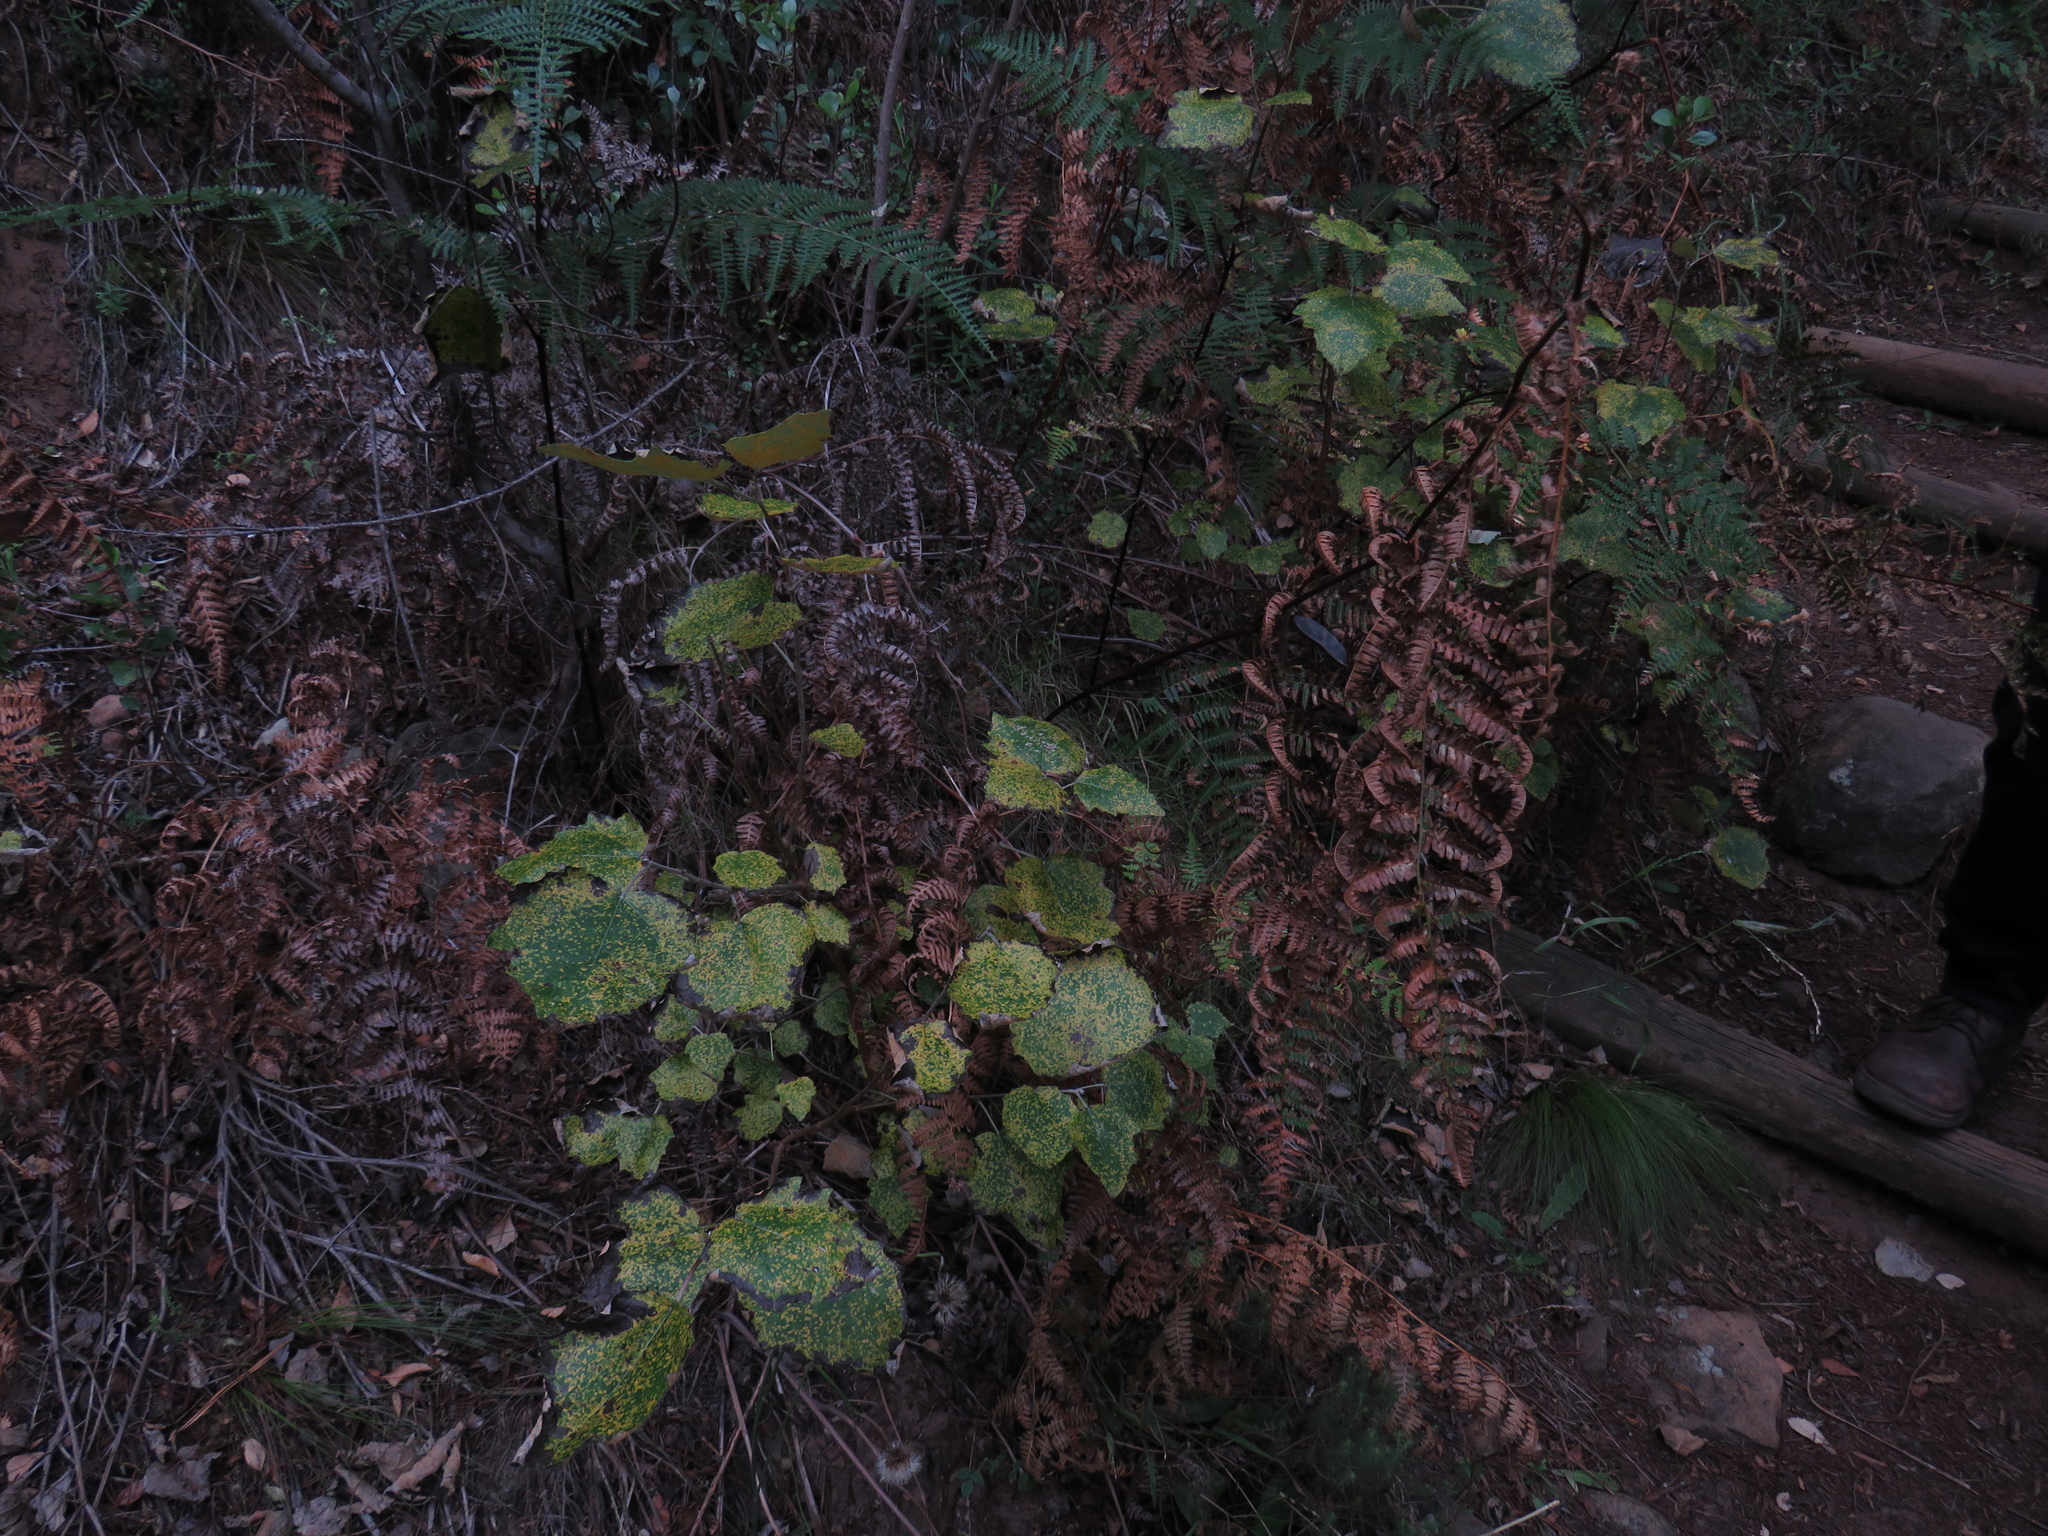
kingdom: Plantae
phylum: Tracheophyta
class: Magnoliopsida
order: Malpighiales
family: Salicaceae
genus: Populus
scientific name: Populus canescens
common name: Gray poplar
